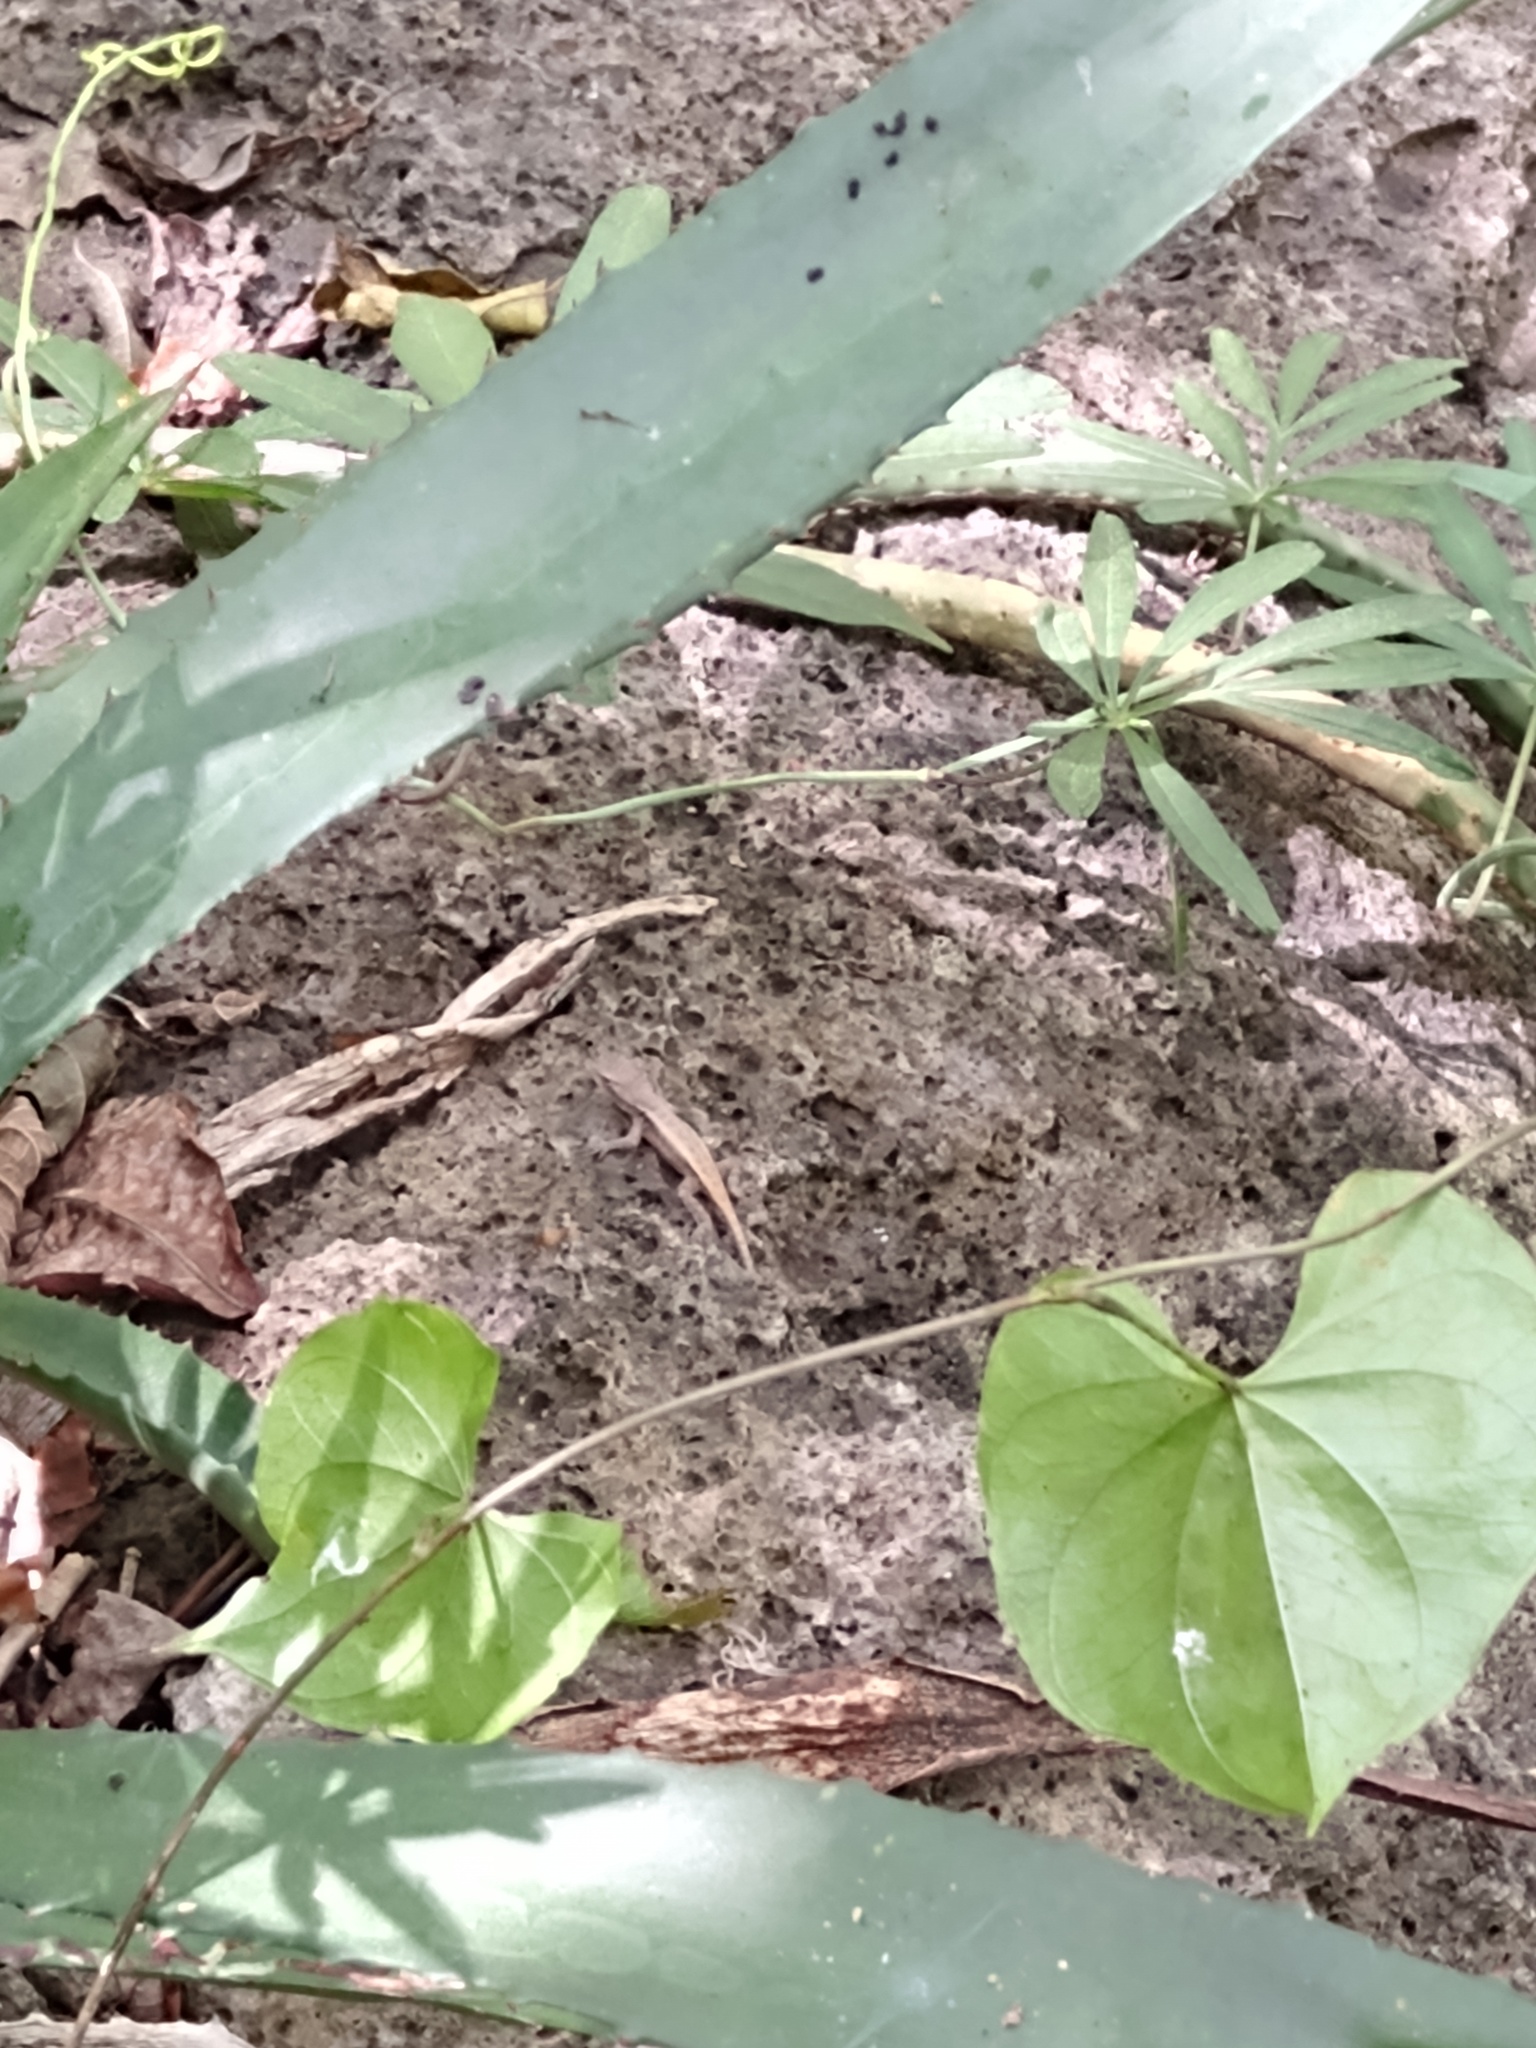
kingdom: Animalia
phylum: Chordata
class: Squamata
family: Phrynosomatidae
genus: Sceloporus
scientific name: Sceloporus chrysostictus
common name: Yellow-spotted spiny lizard
